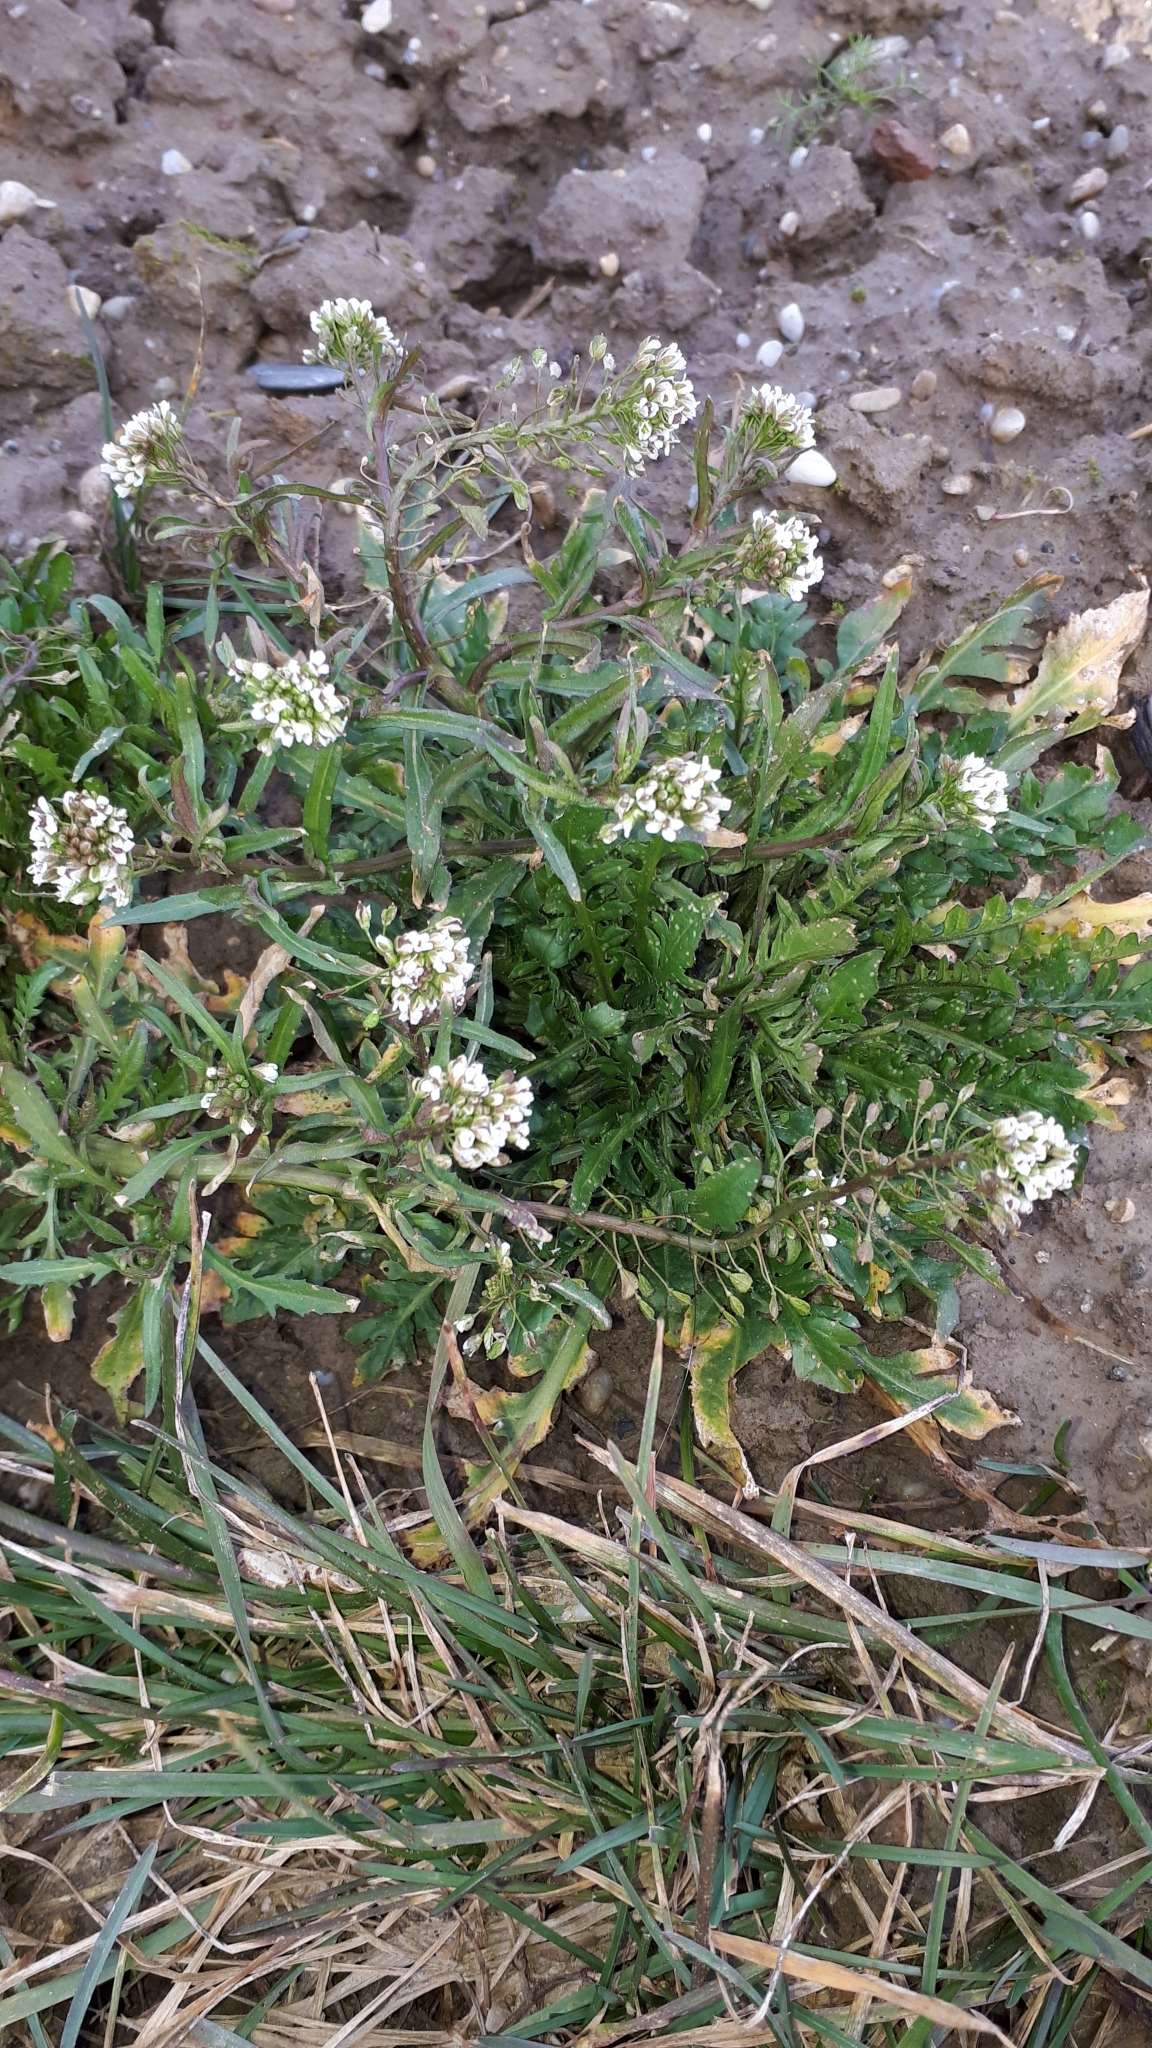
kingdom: Plantae
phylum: Tracheophyta
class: Magnoliopsida
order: Brassicales
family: Brassicaceae
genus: Capsella
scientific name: Capsella bursa-pastoris
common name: Shepherd's purse
